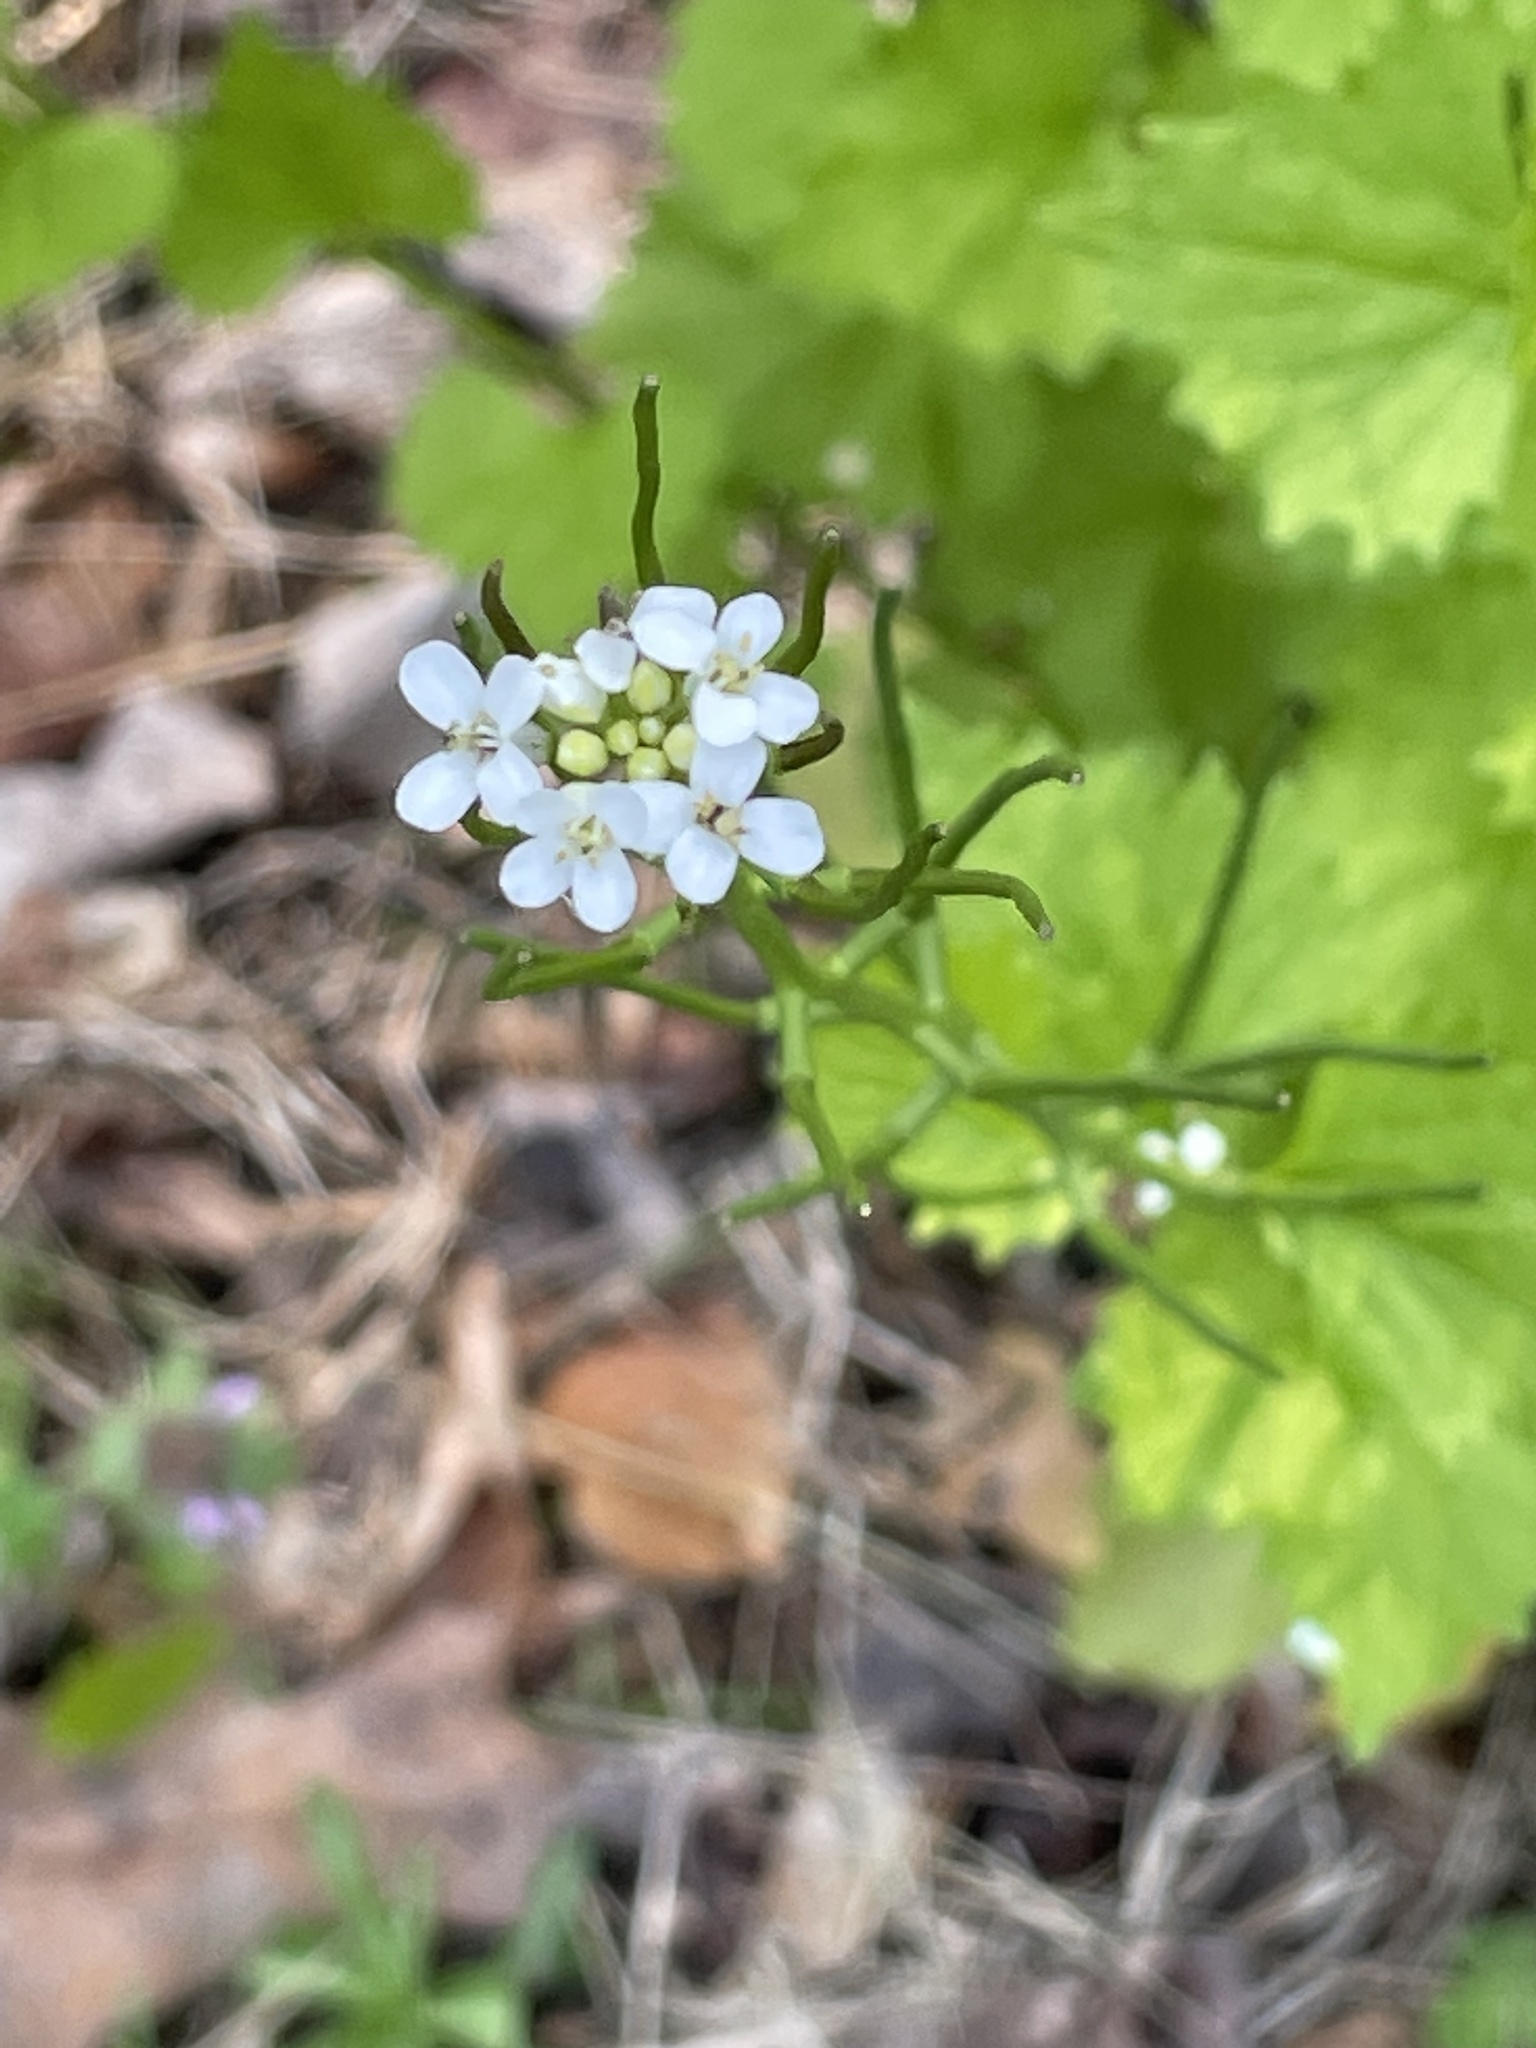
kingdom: Plantae
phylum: Tracheophyta
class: Magnoliopsida
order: Brassicales
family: Brassicaceae
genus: Alliaria
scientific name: Alliaria petiolata
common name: Garlic mustard
